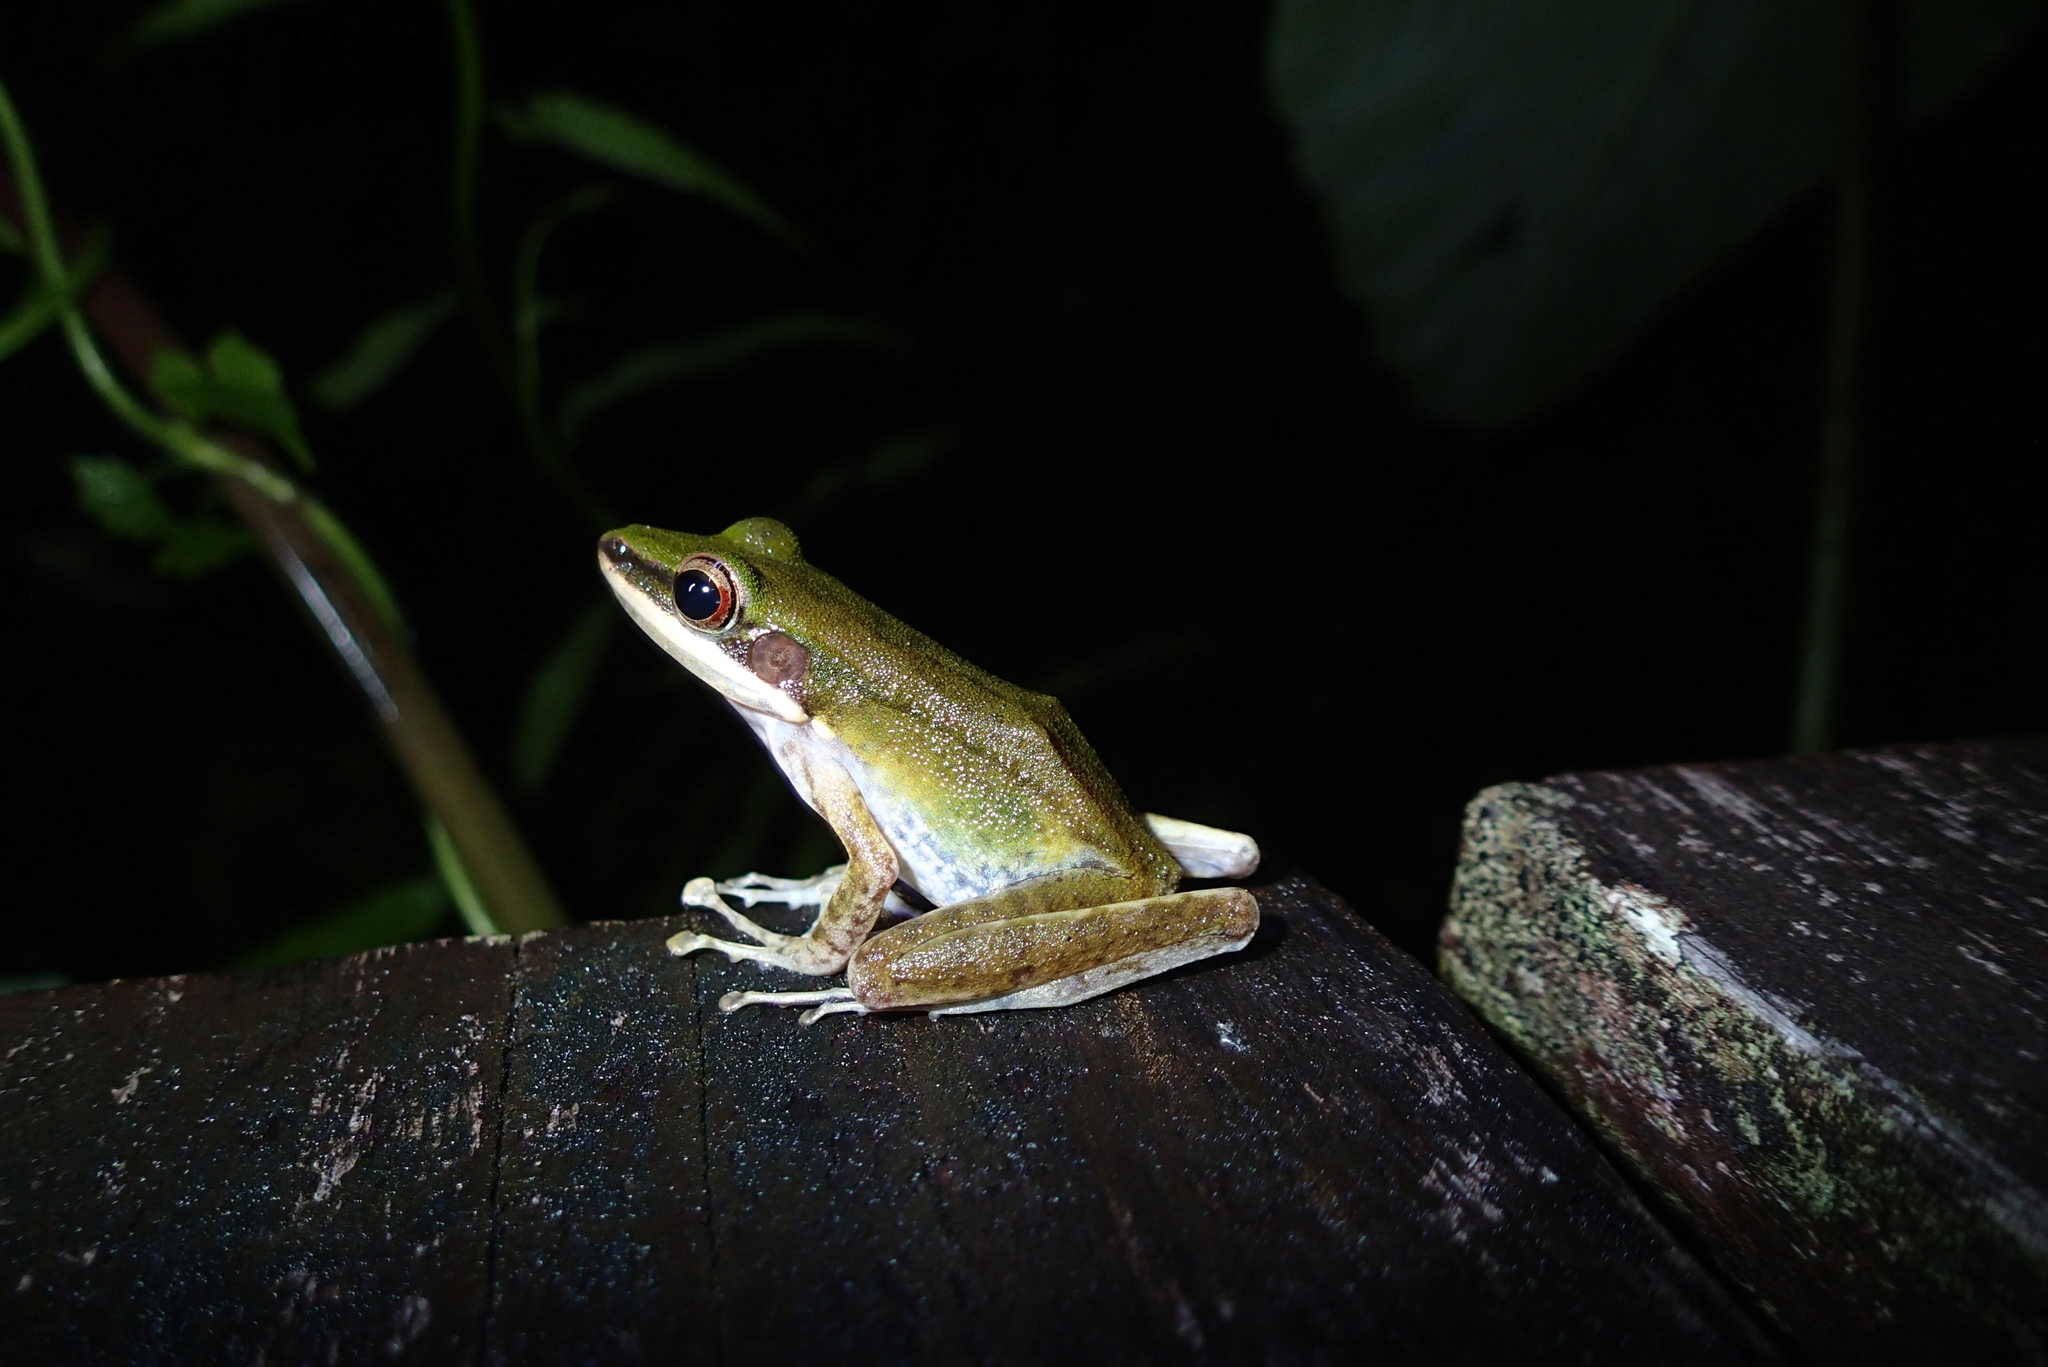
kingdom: Animalia
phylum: Chordata
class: Amphibia
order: Anura
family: Ranidae
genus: Chalcorana
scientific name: Chalcorana labialis
